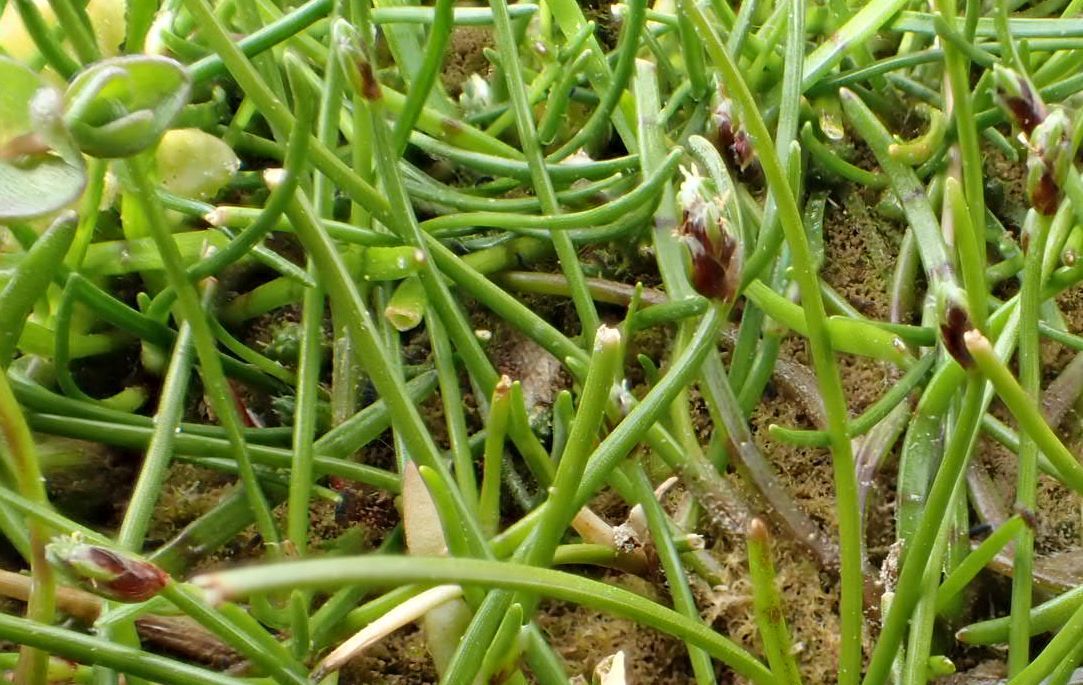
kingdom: Plantae
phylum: Tracheophyta
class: Liliopsida
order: Poales
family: Cyperaceae
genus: Isolepis
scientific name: Isolepis cernua
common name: Slender club-rush
